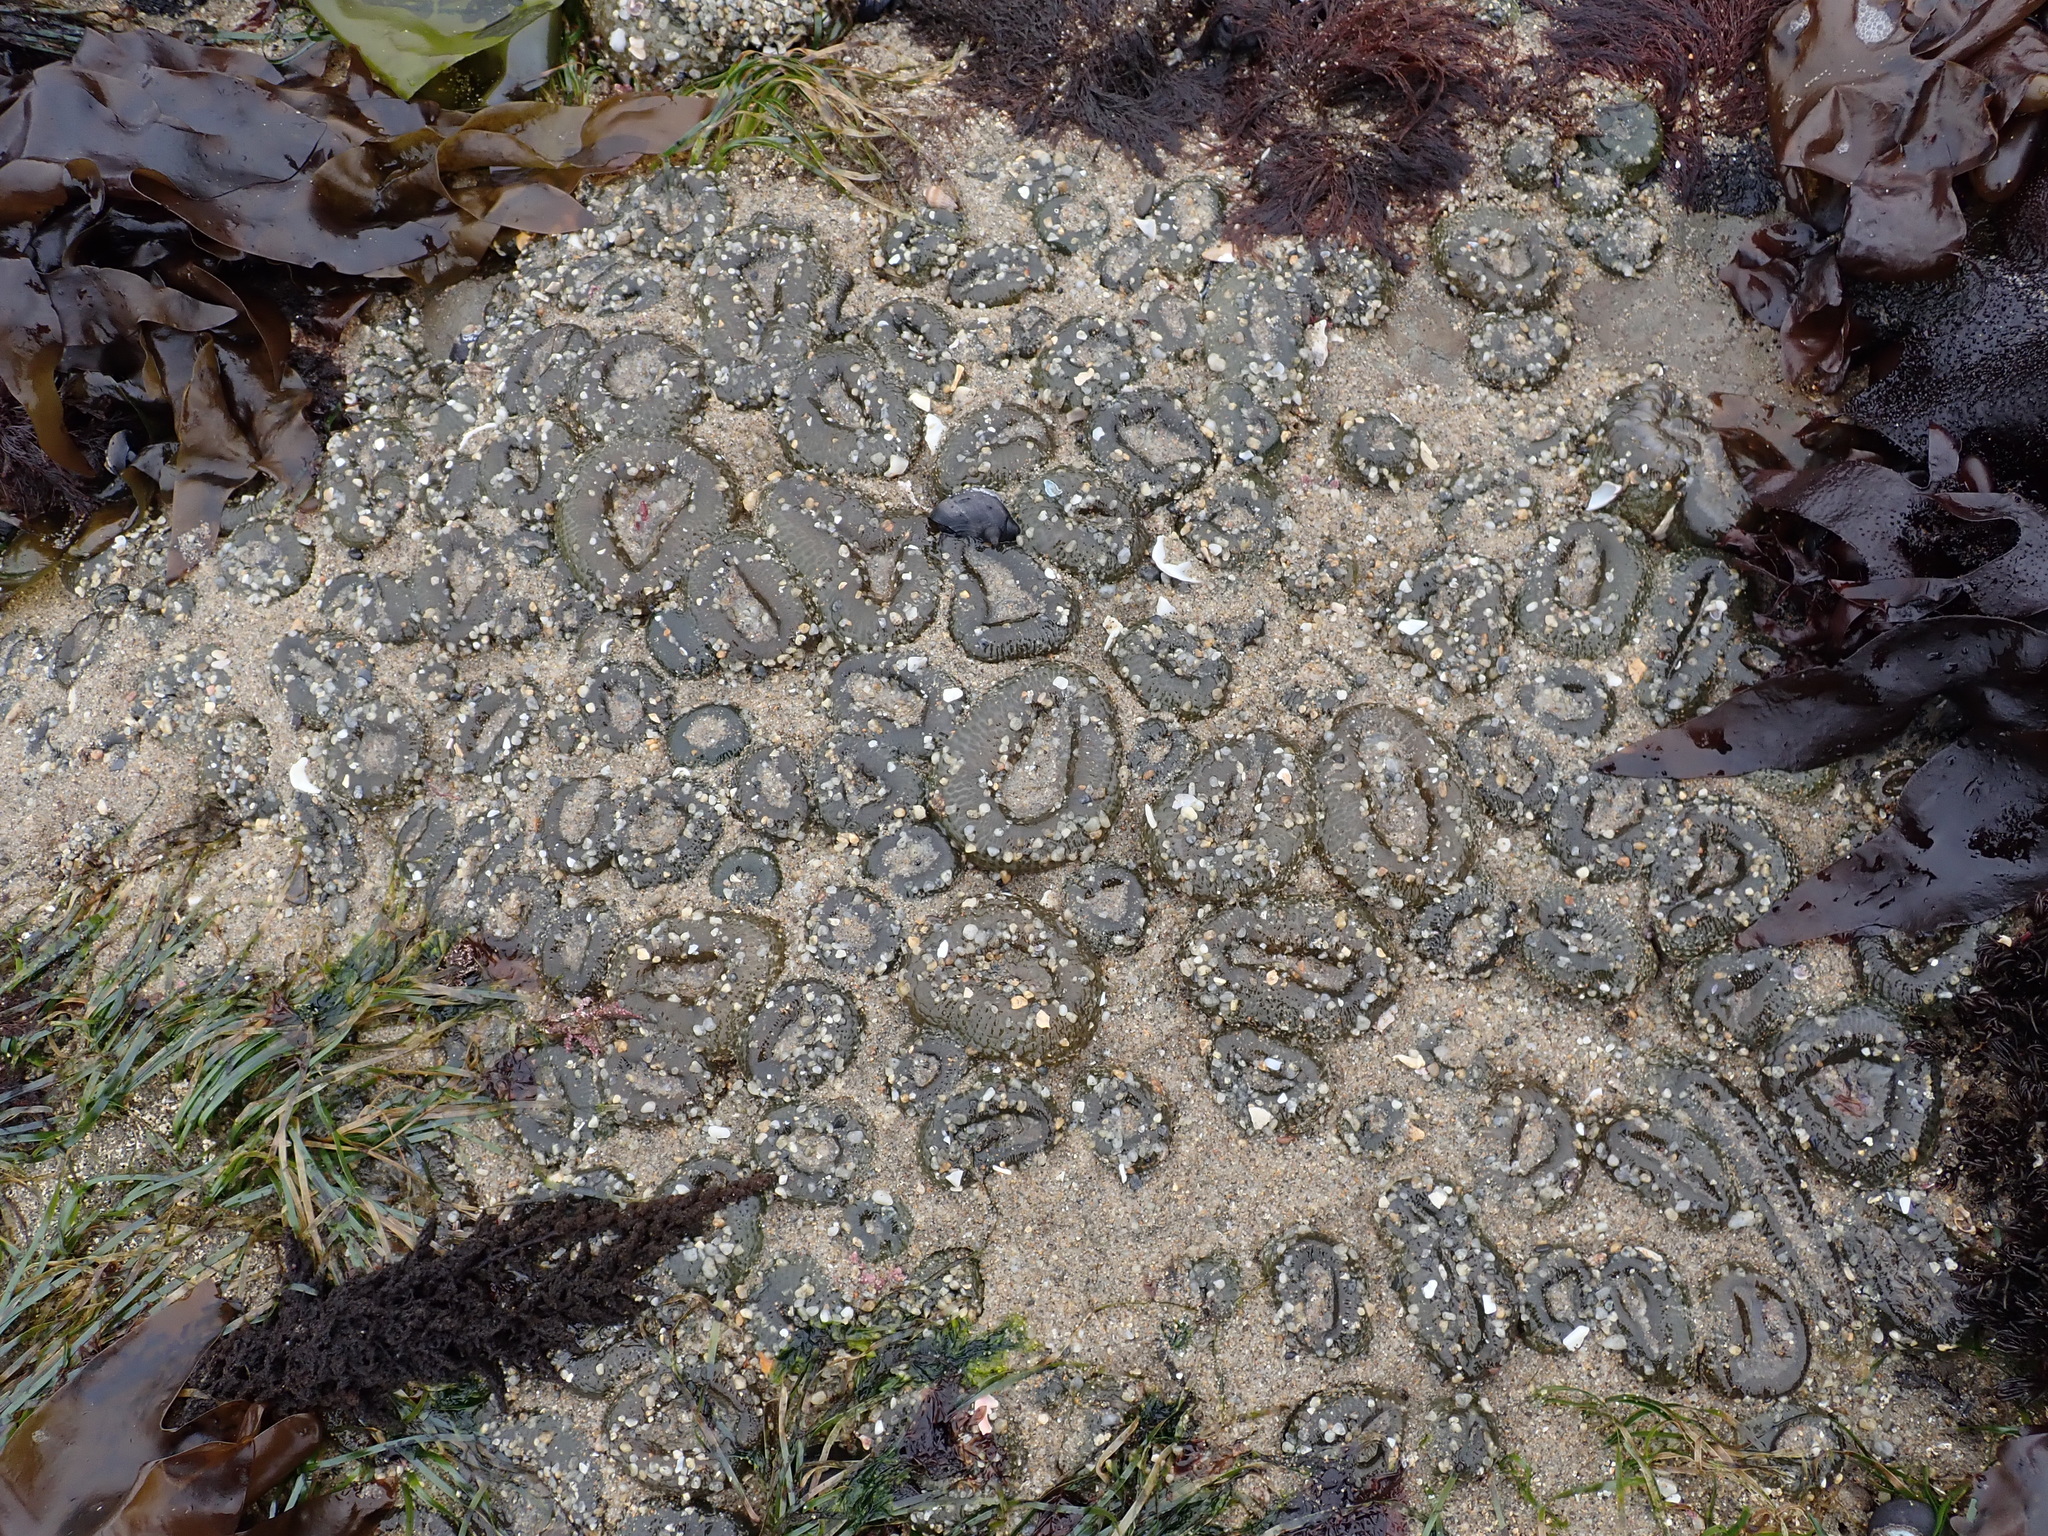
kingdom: Animalia
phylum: Cnidaria
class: Anthozoa
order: Actiniaria
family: Actiniidae
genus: Anthopleura
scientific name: Anthopleura elegantissima
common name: Clonal anemone
